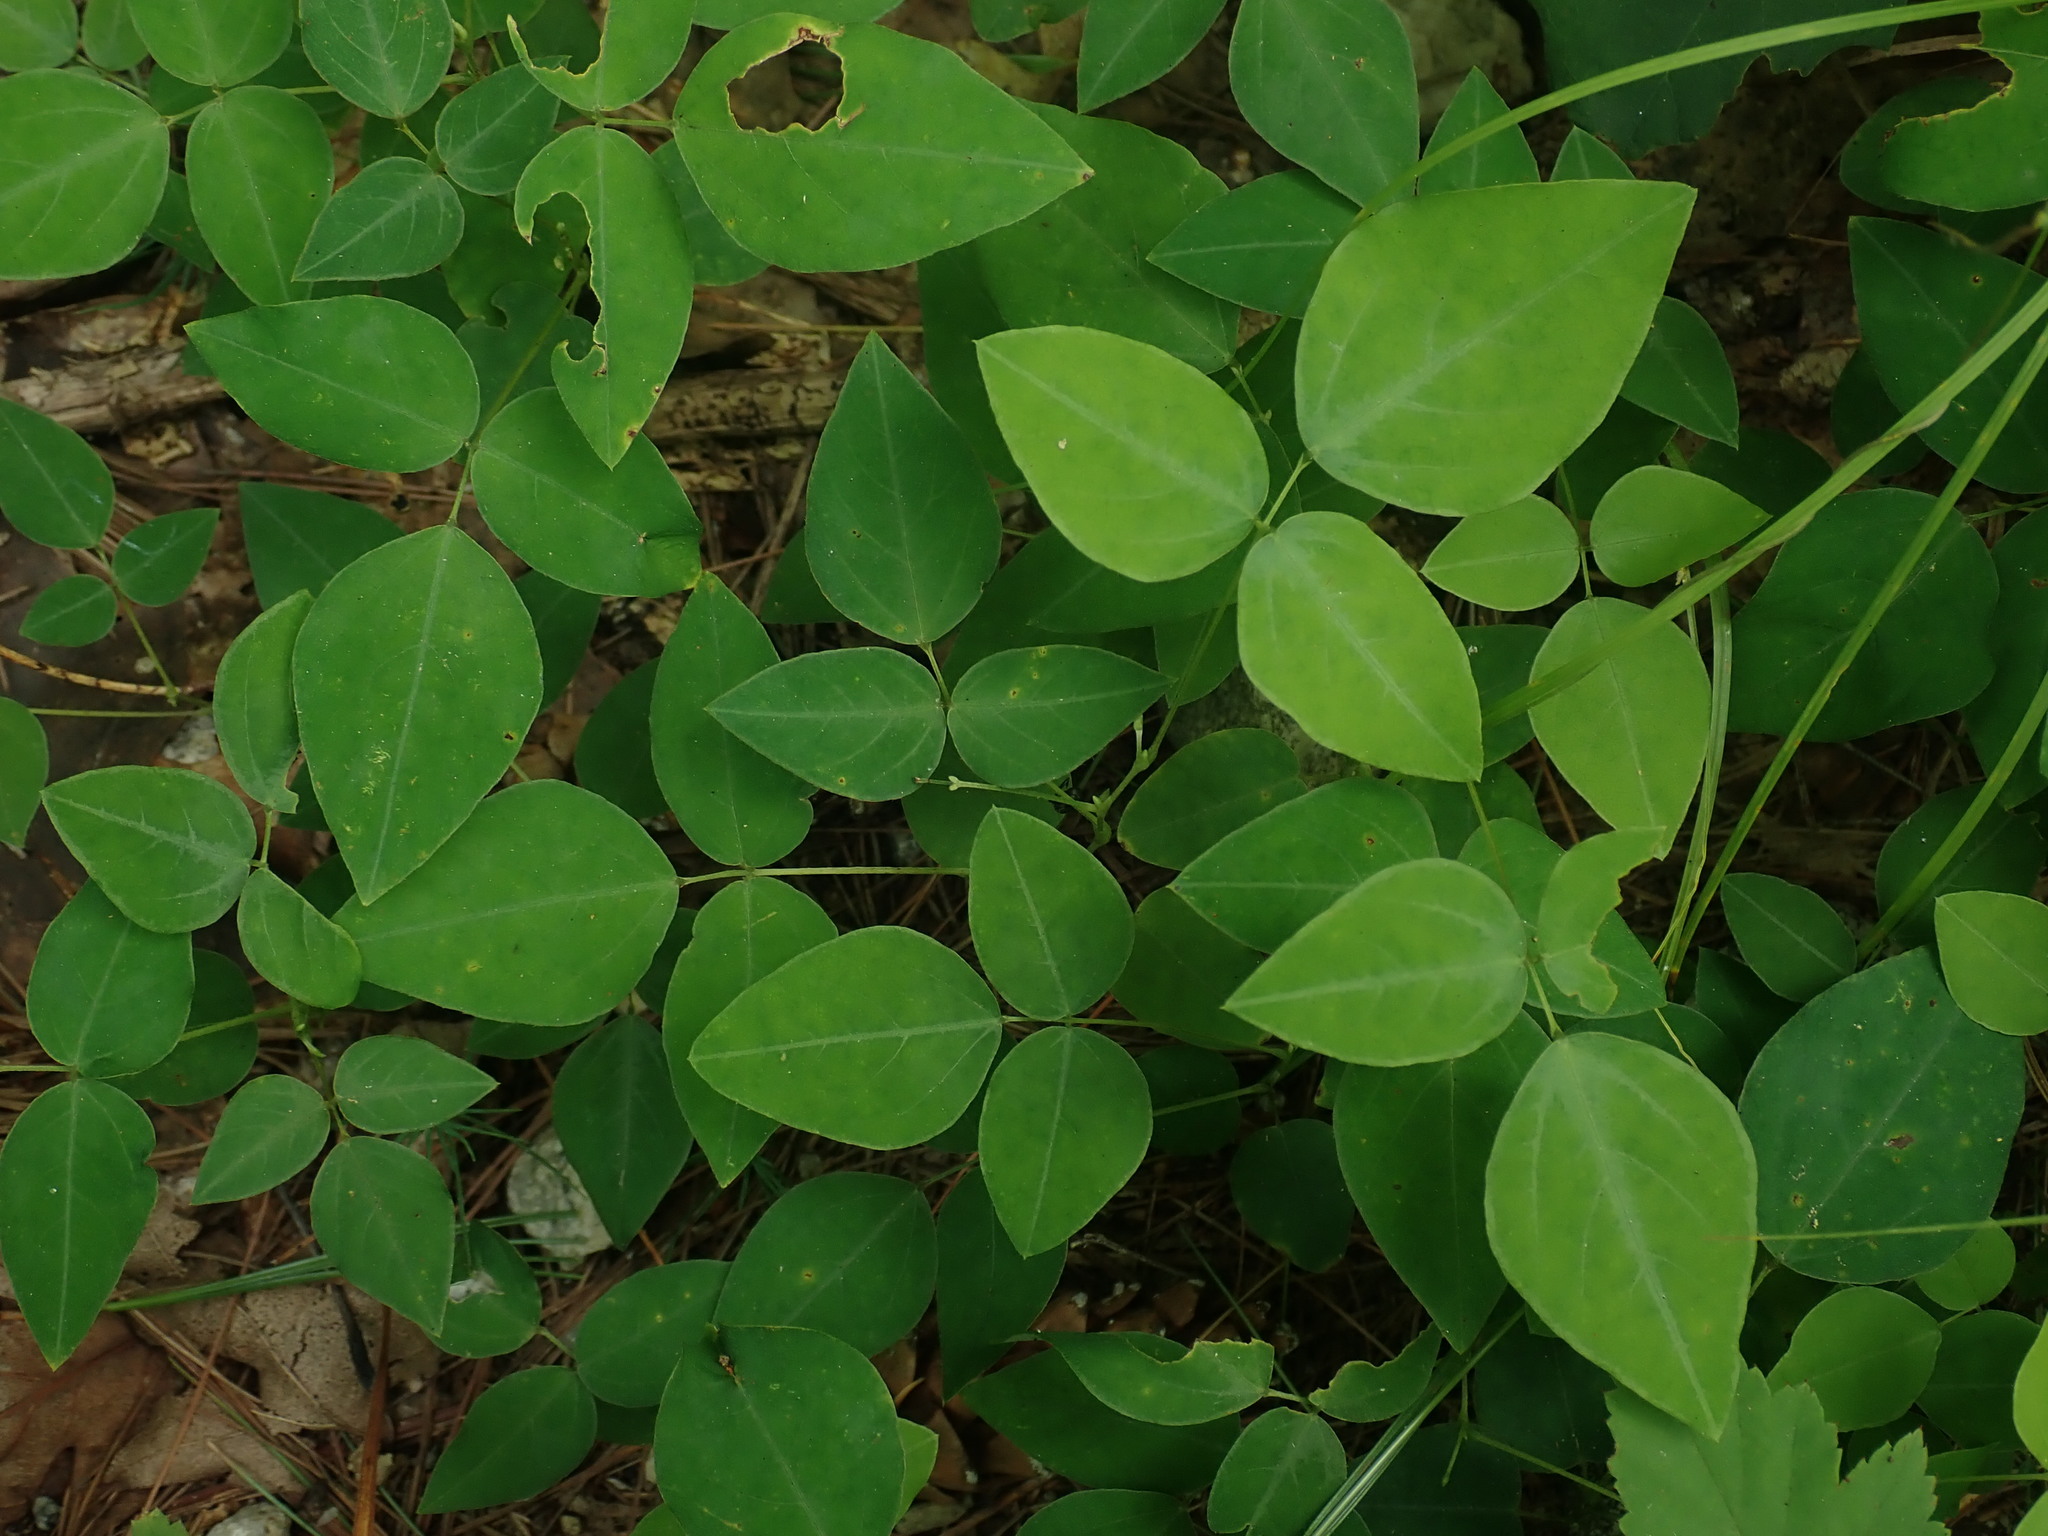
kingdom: Plantae
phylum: Tracheophyta
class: Magnoliopsida
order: Fabales
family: Fabaceae
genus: Amphicarpaea
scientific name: Amphicarpaea bracteata
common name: American hog peanut
